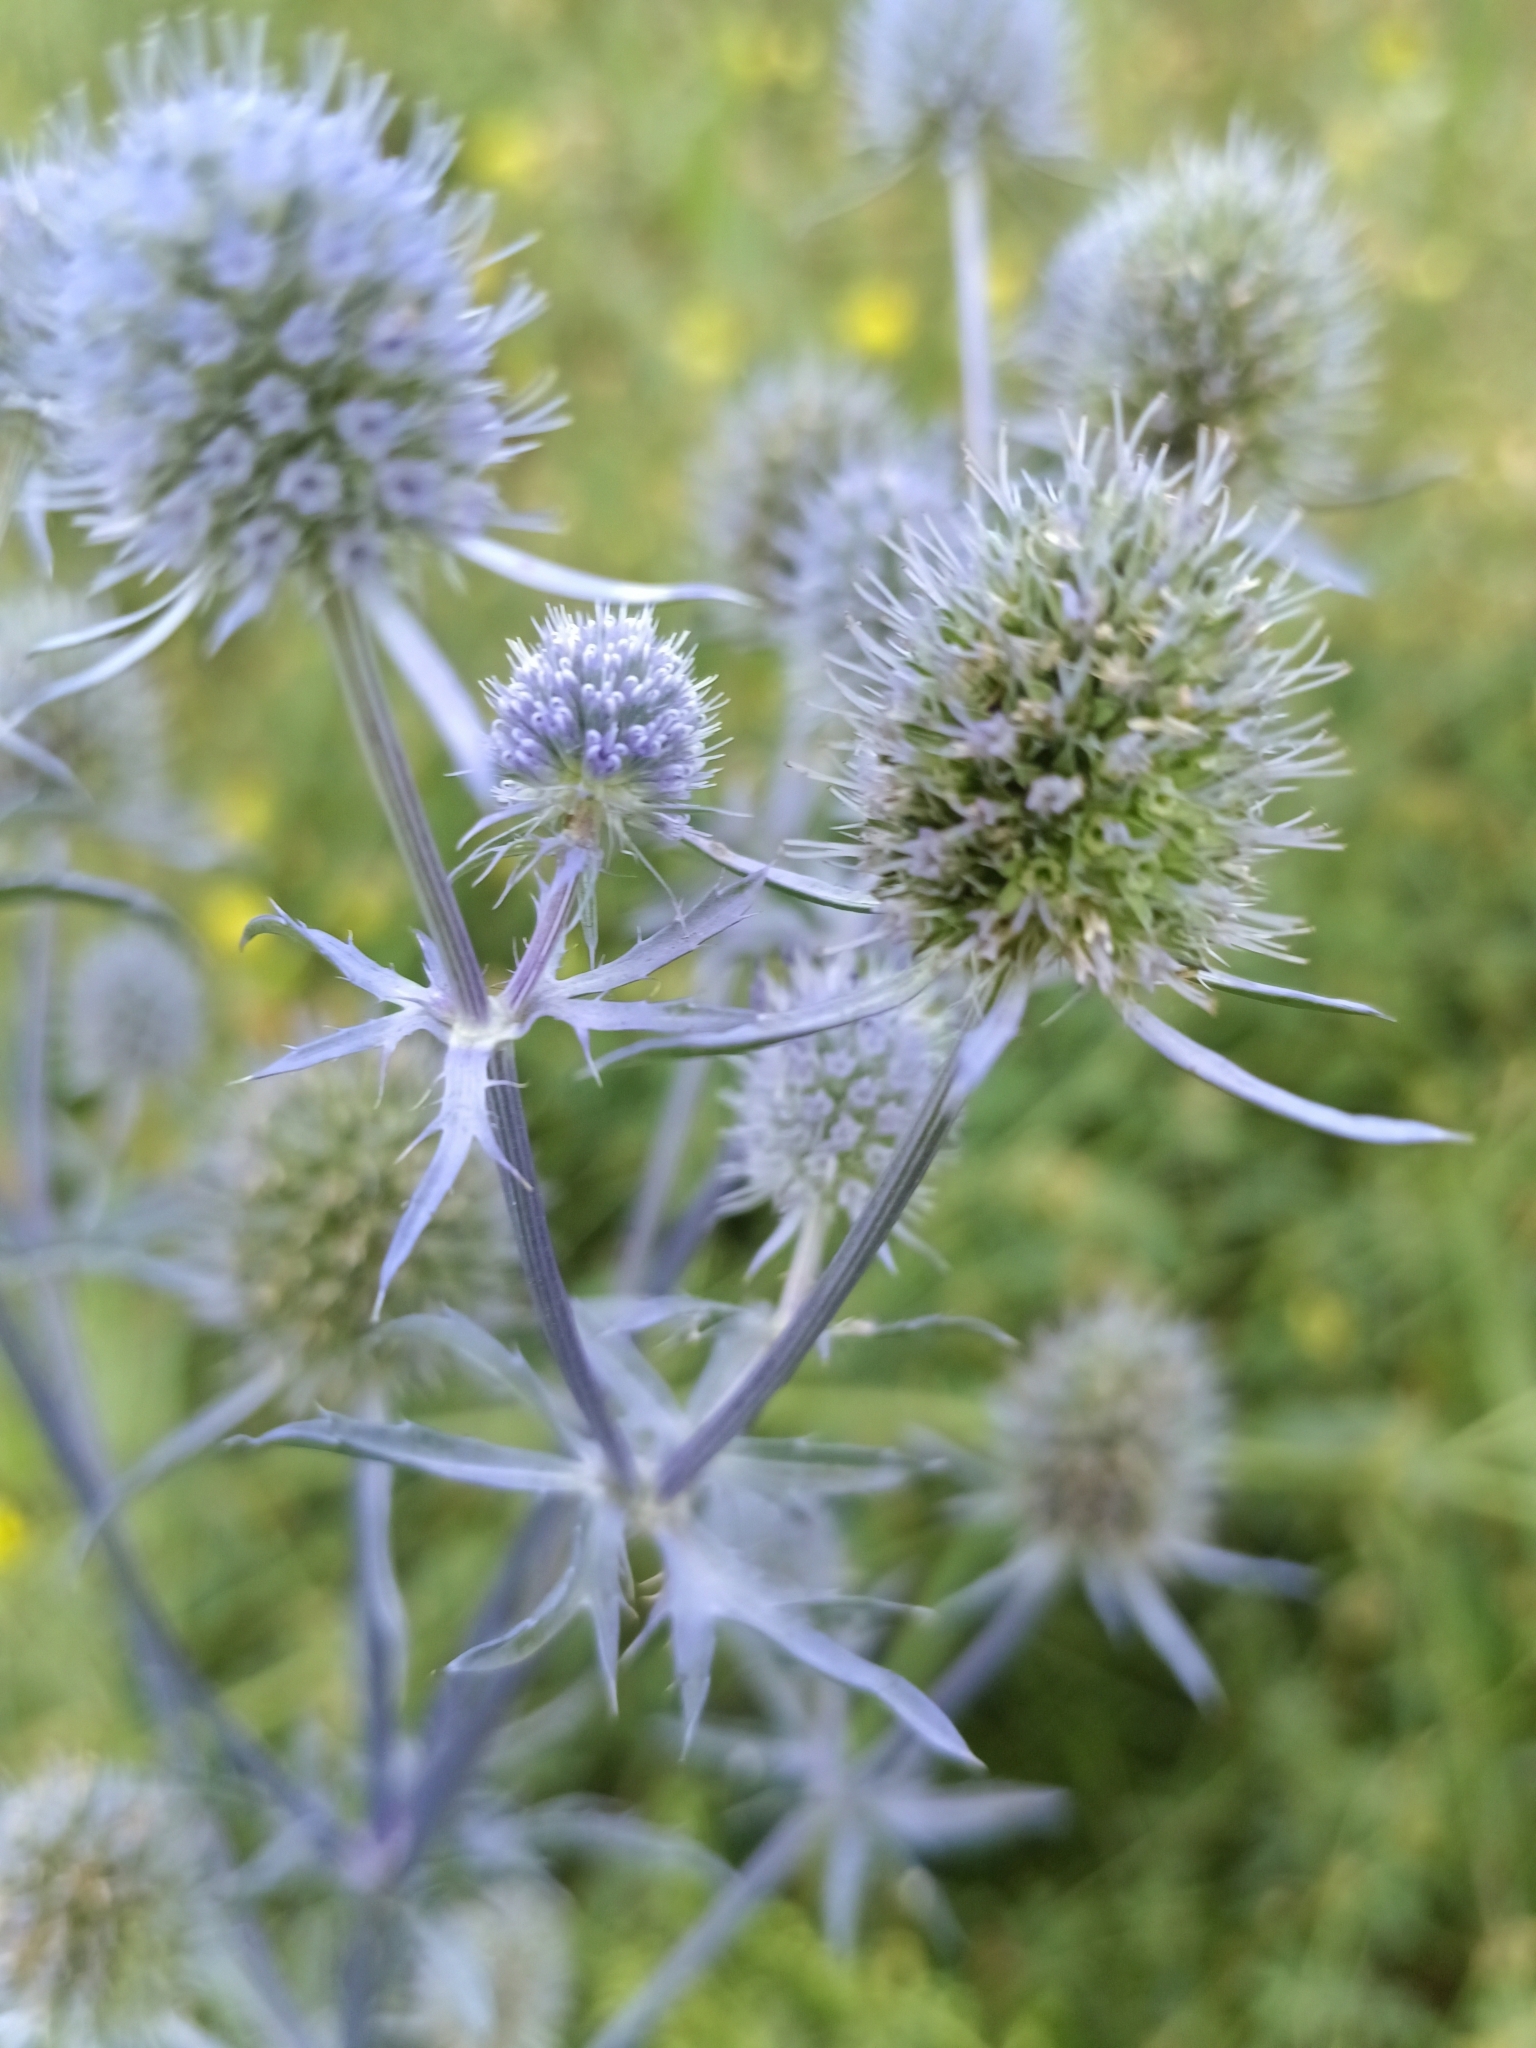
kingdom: Plantae
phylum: Tracheophyta
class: Magnoliopsida
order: Apiales
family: Apiaceae
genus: Eryngium
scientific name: Eryngium planum
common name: Blue eryngo
